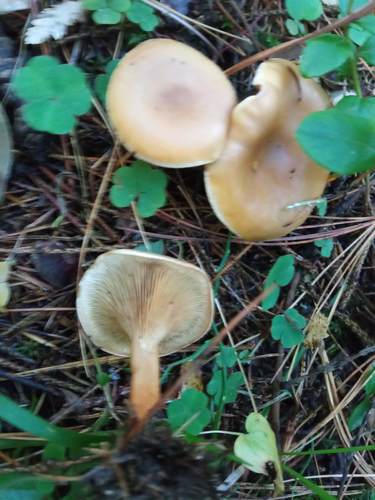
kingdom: Fungi
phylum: Basidiomycota
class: Agaricomycetes
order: Agaricales
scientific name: Agaricales
